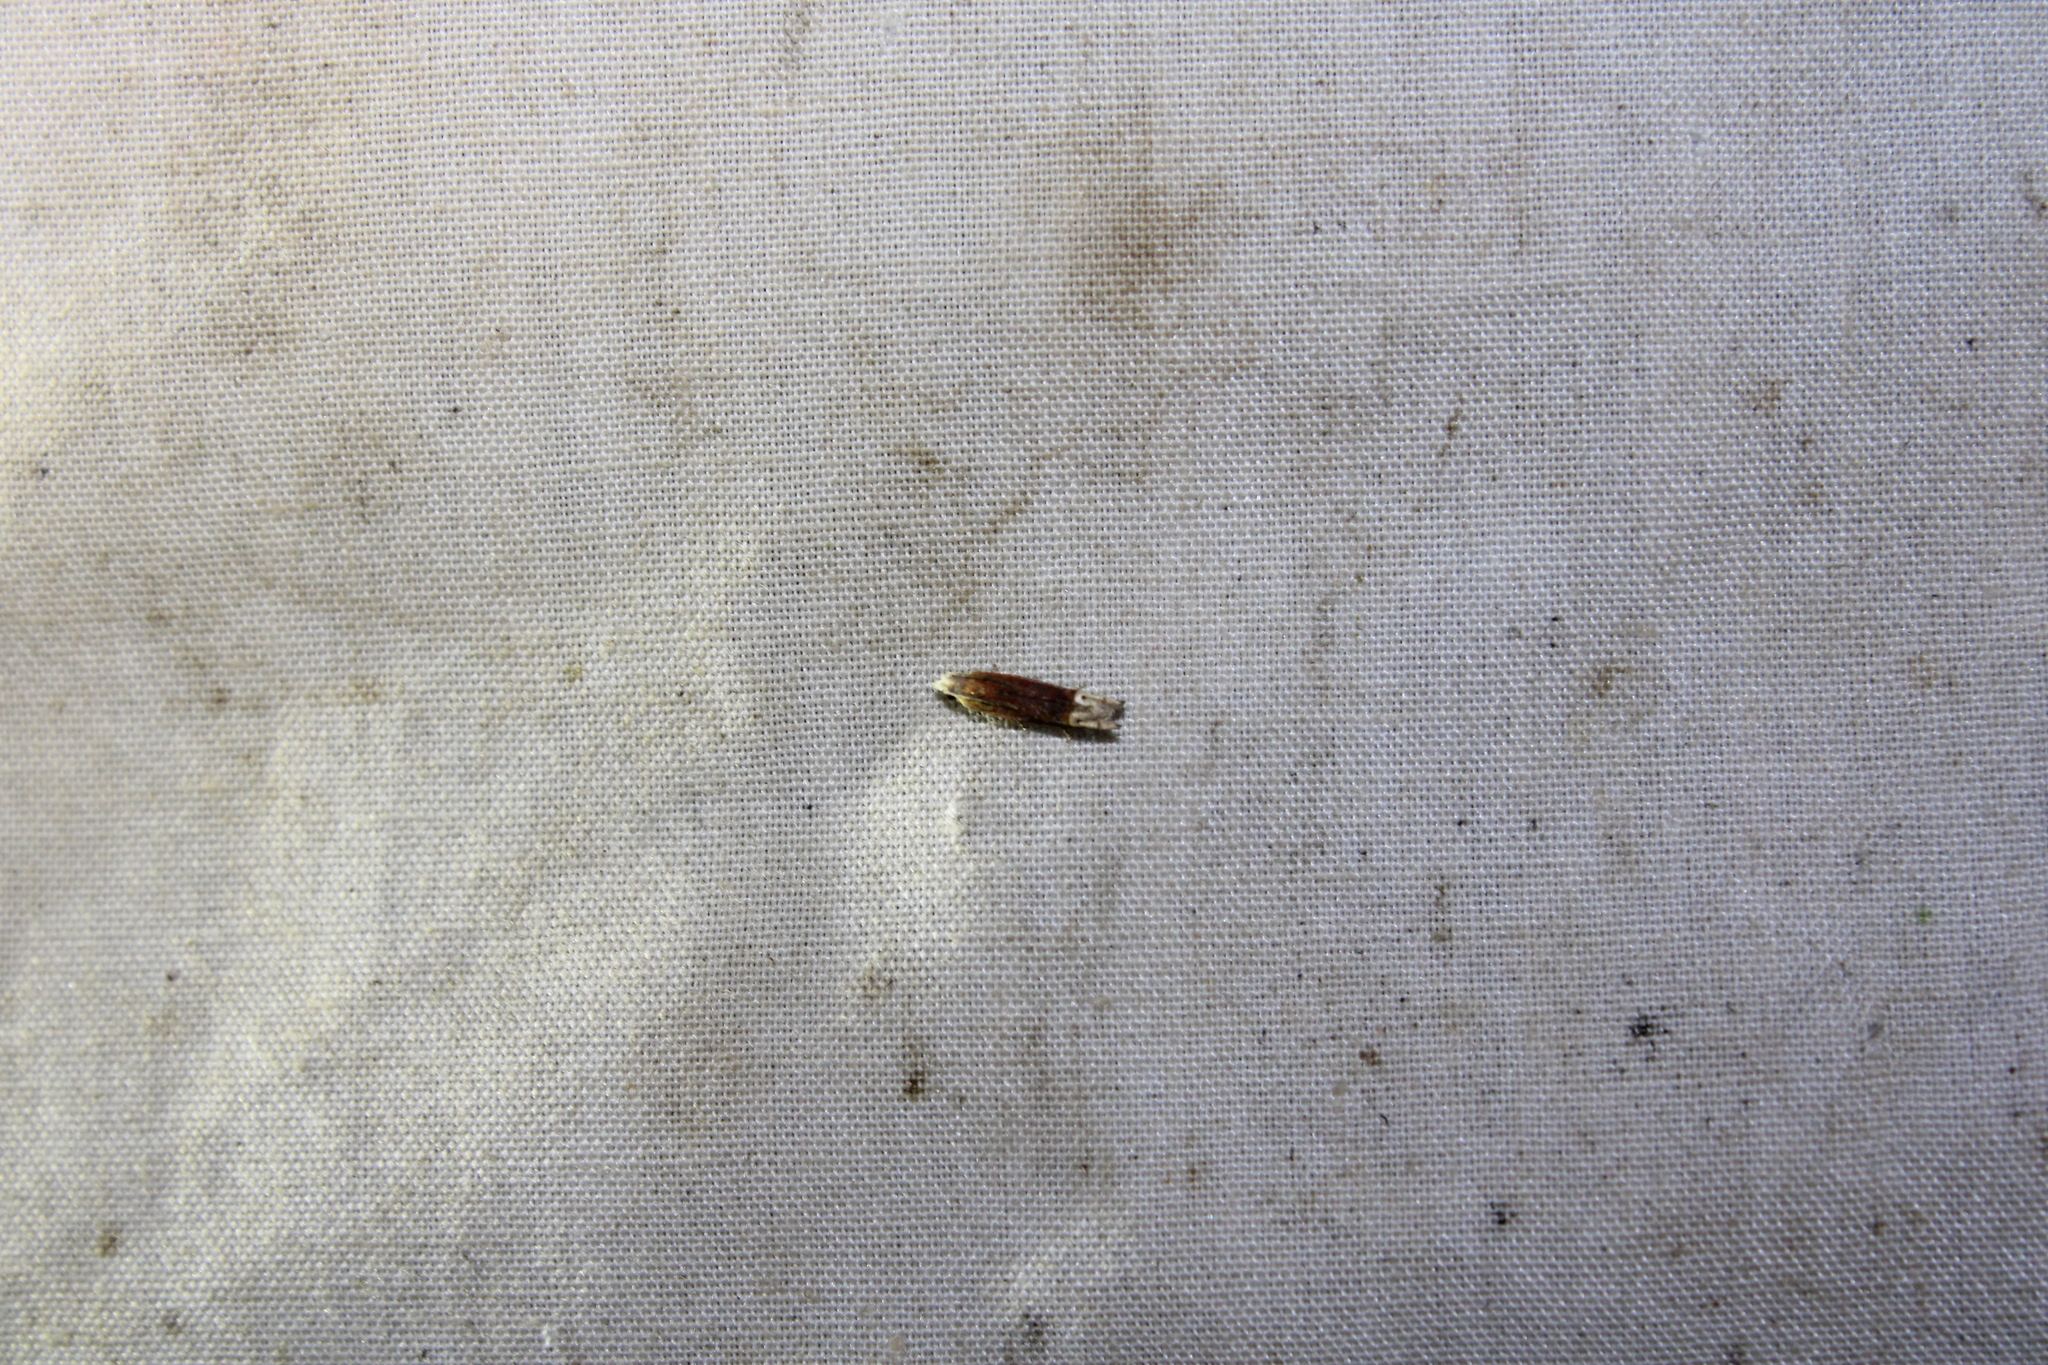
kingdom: Animalia
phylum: Arthropoda
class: Insecta
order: Lepidoptera
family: Tortricidae
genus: Eucosma
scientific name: Eucosma raracana
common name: Reddish eucosma moth
